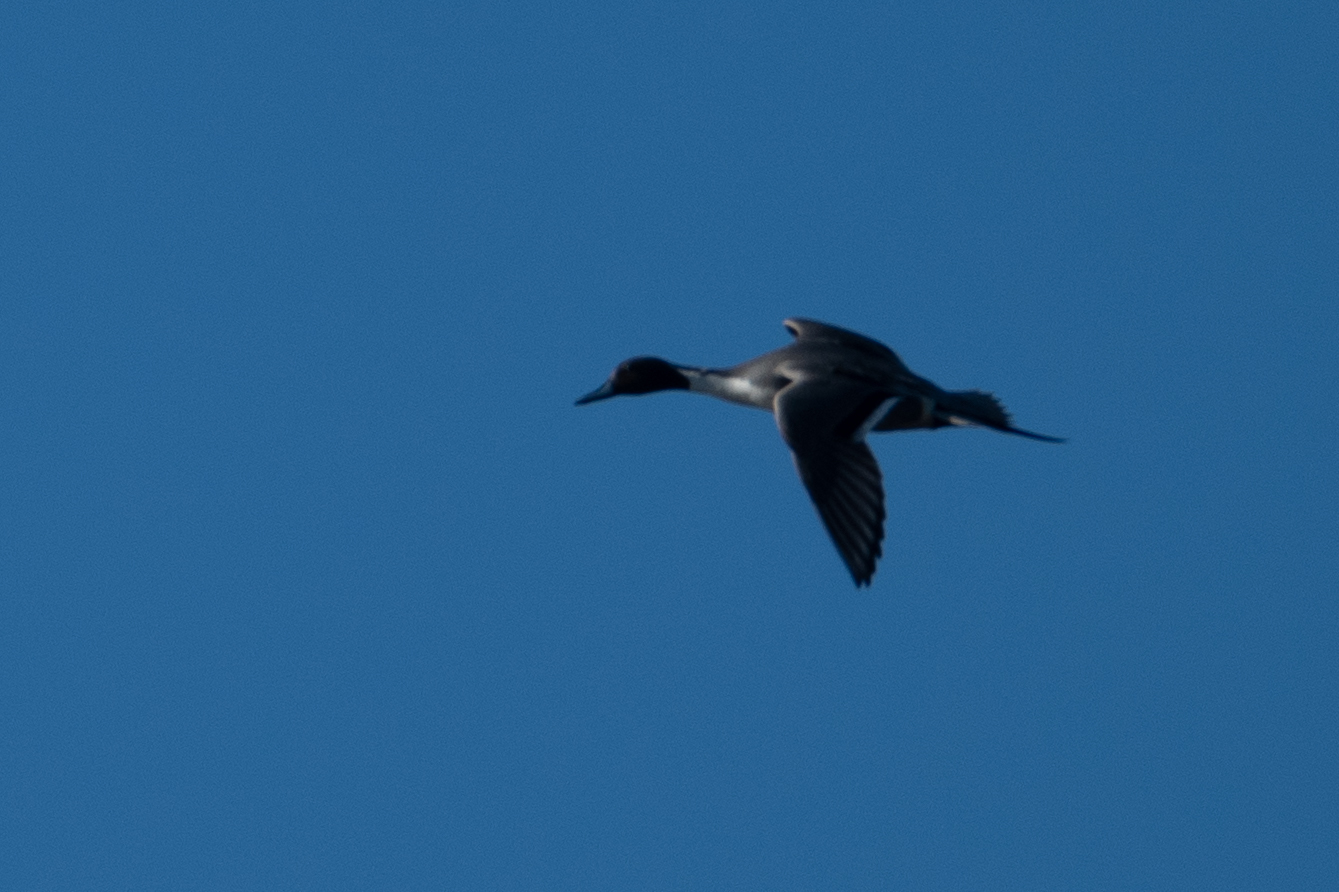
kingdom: Animalia
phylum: Chordata
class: Aves
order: Anseriformes
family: Anatidae
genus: Anas
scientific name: Anas acuta
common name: Northern pintail
